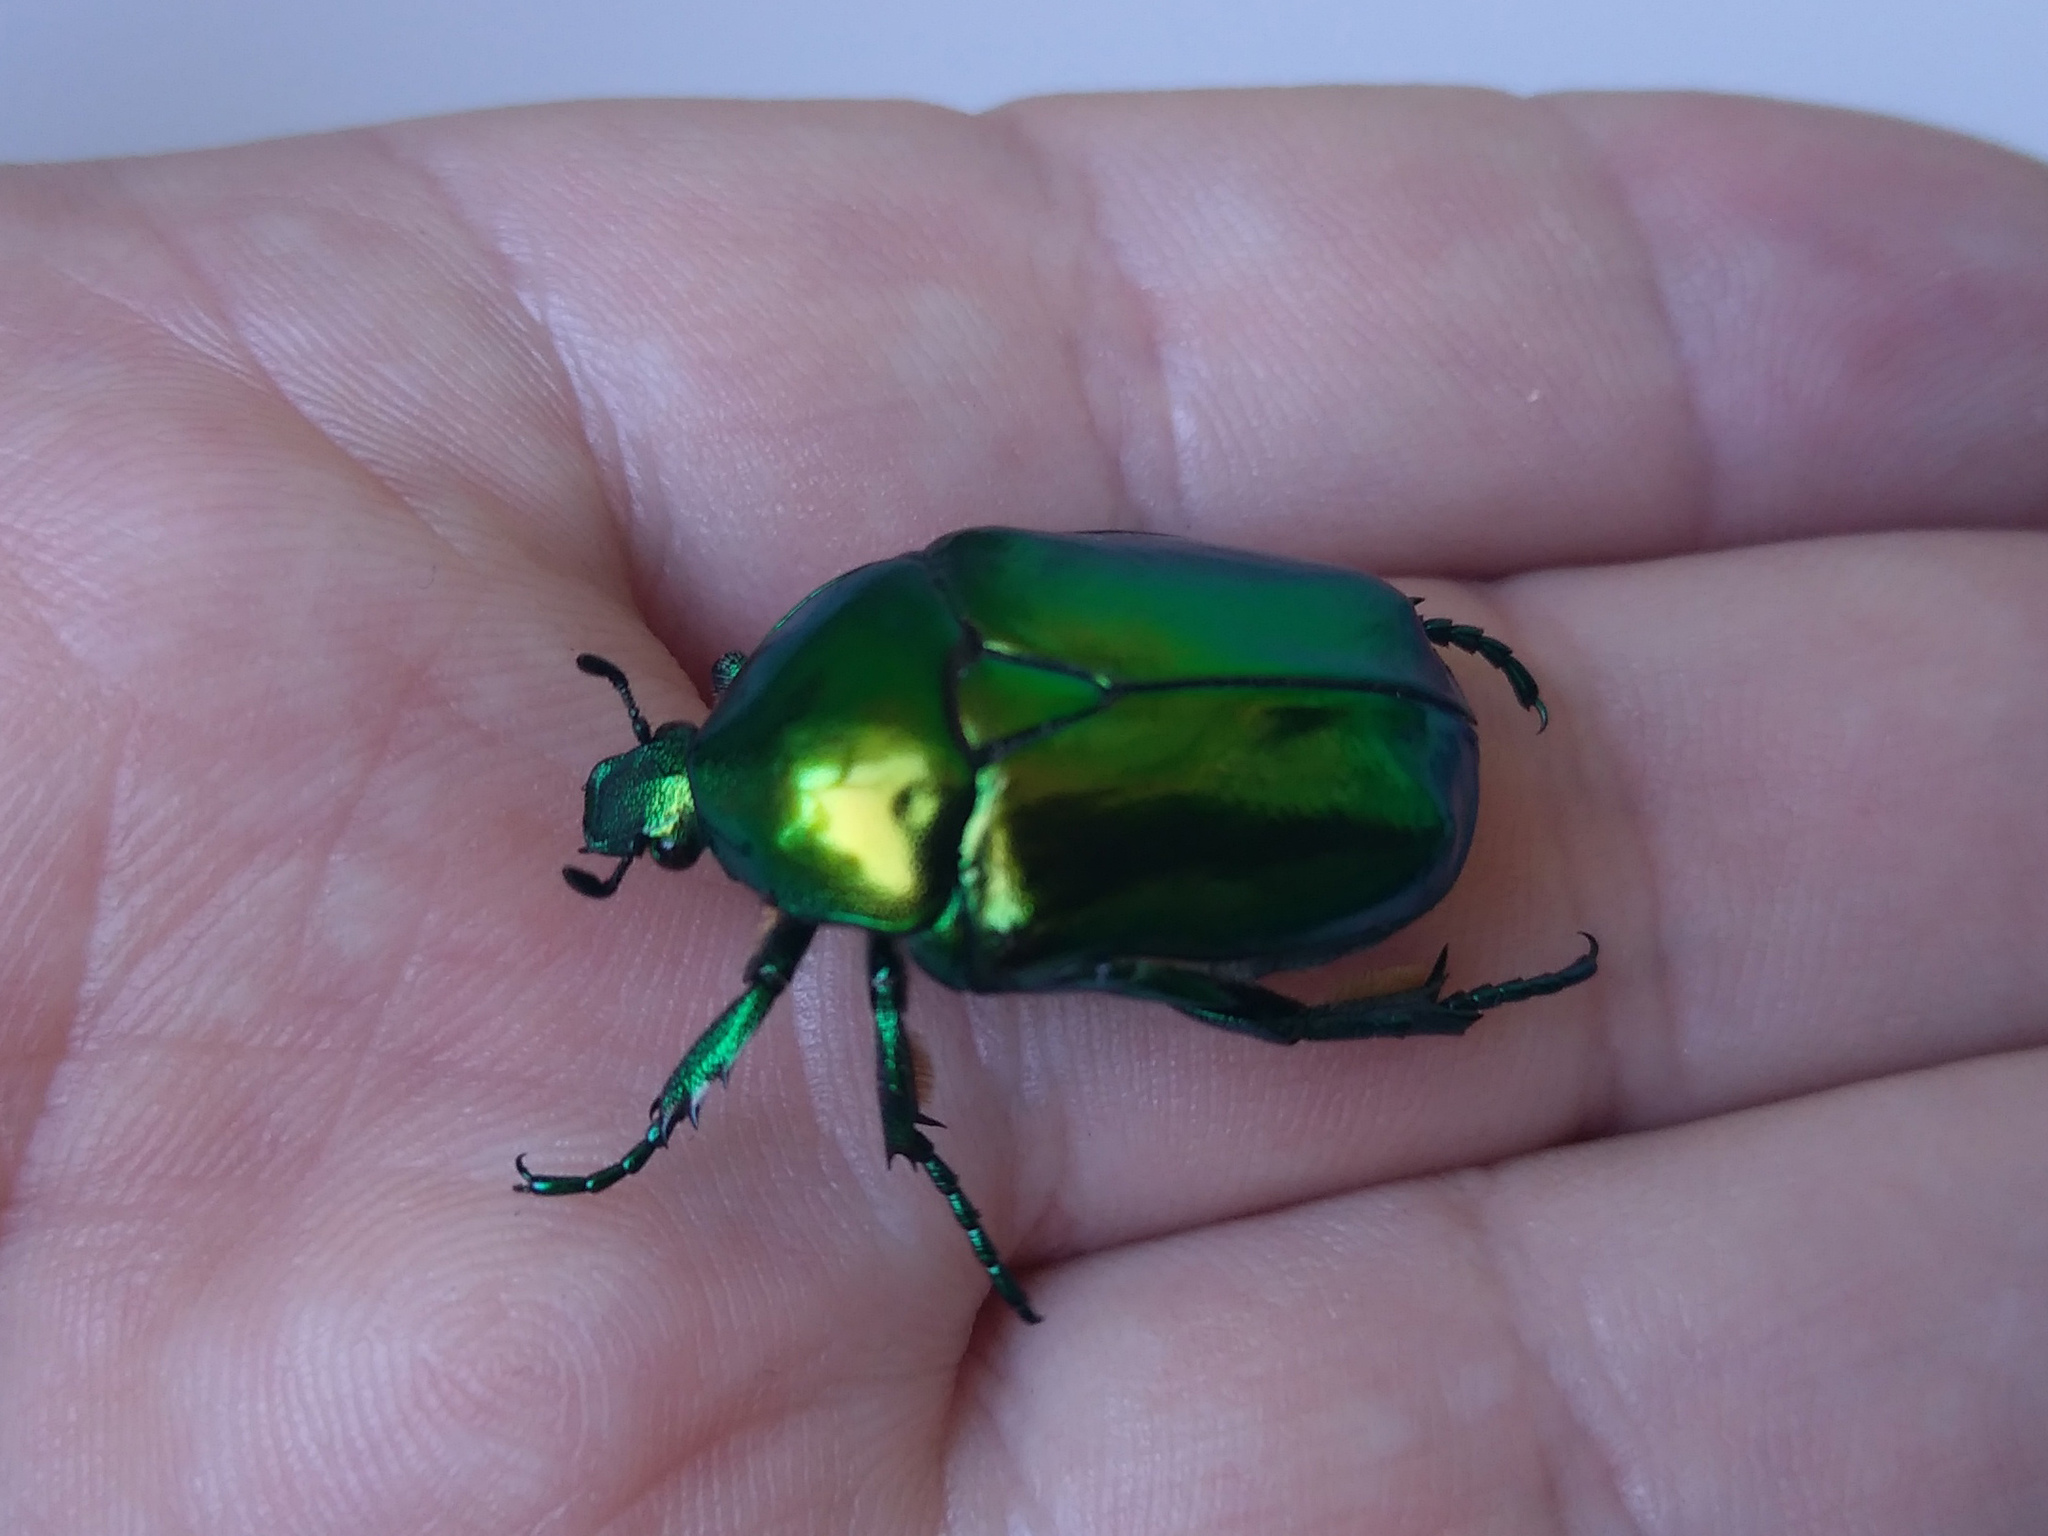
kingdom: Animalia
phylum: Arthropoda
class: Insecta
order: Coleoptera
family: Scarabaeidae
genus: Protaetia
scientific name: Protaetia speciosissima
